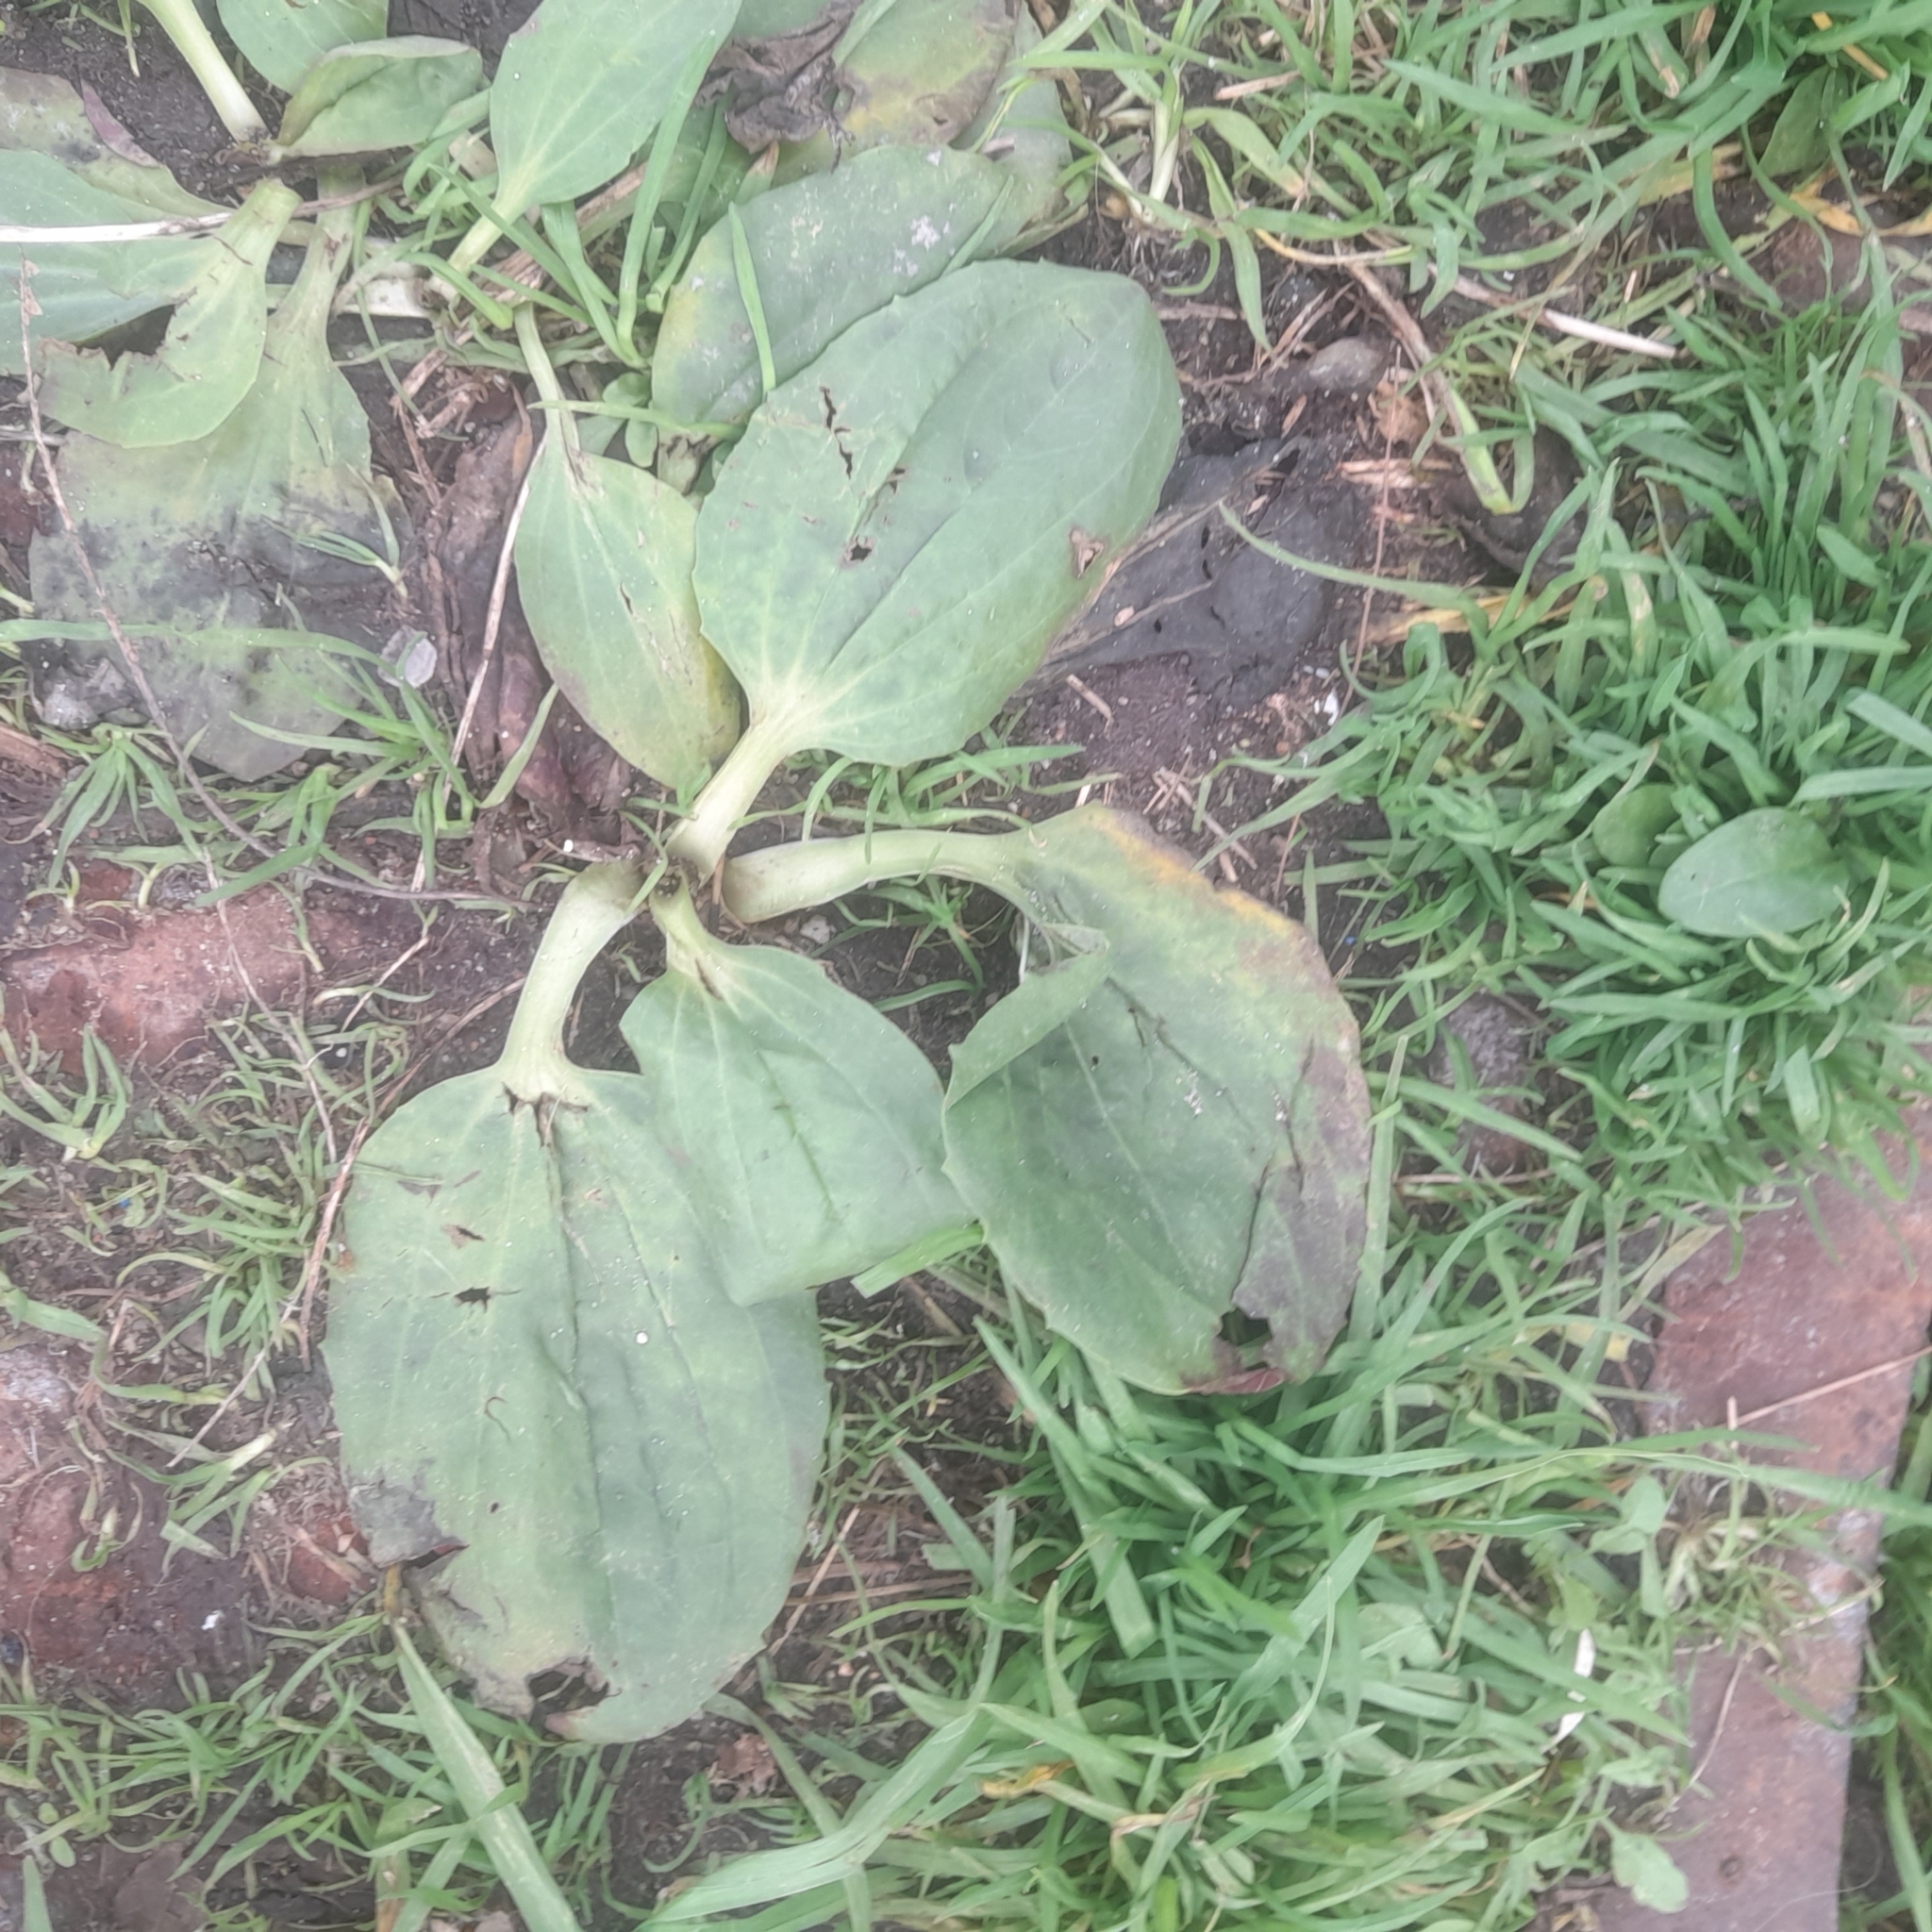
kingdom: Plantae
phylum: Tracheophyta
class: Magnoliopsida
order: Lamiales
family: Plantaginaceae
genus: Plantago
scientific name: Plantago major
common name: Common plantain
